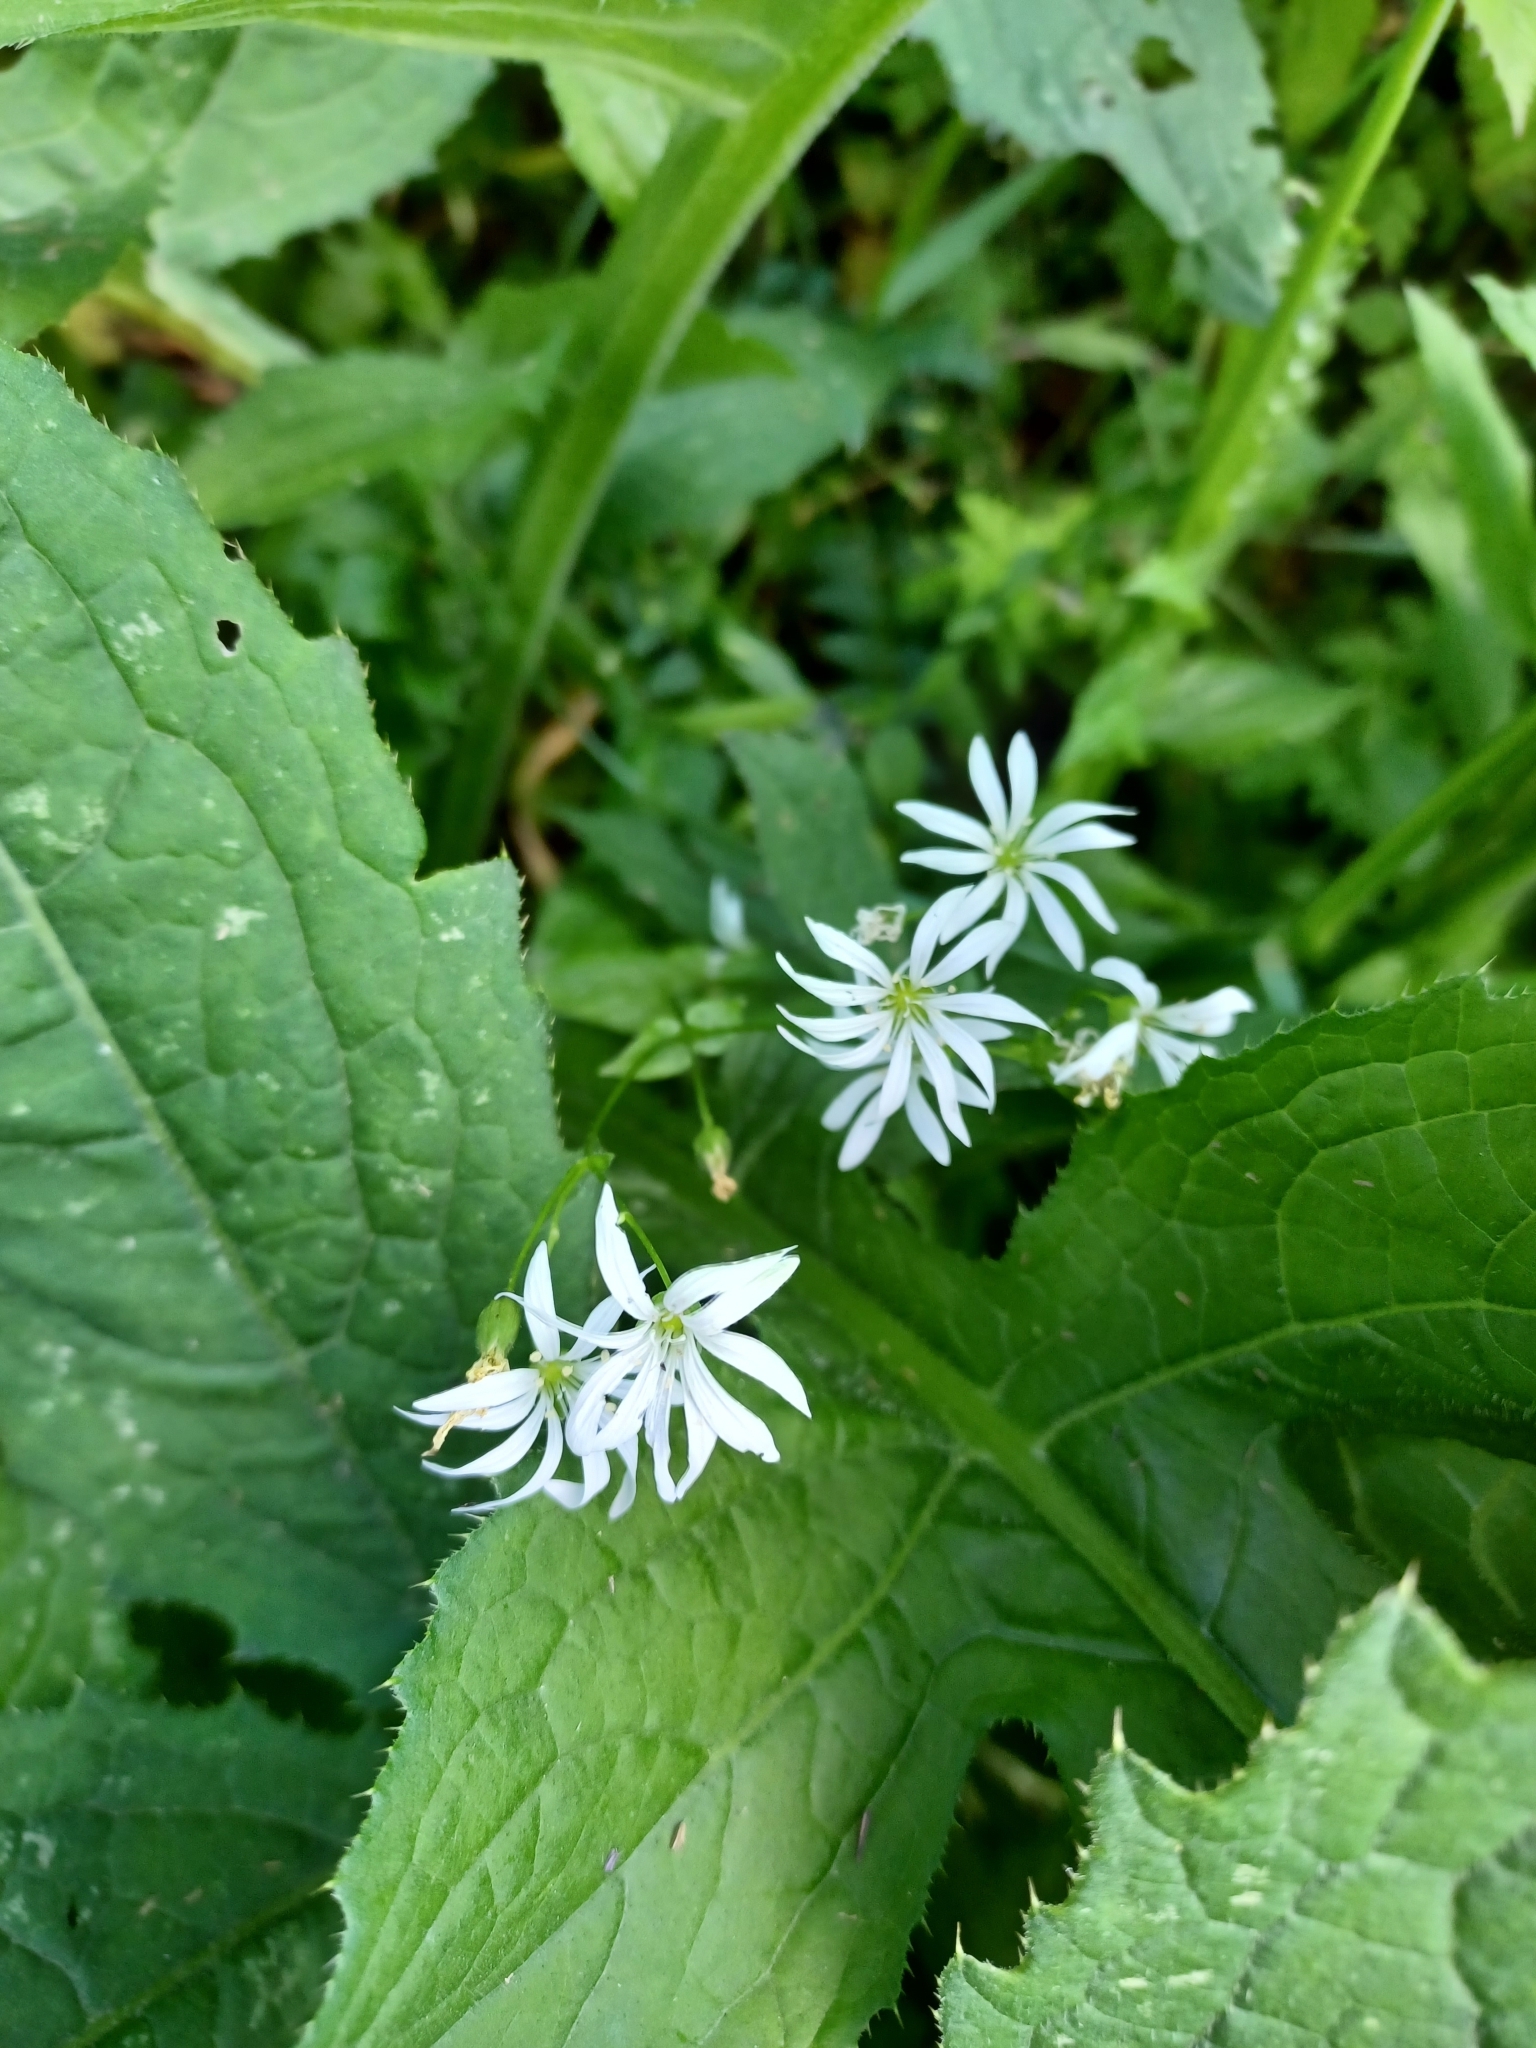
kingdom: Plantae
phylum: Tracheophyta
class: Magnoliopsida
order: Caryophyllales
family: Caryophyllaceae
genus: Stellaria
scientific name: Stellaria nemorum
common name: Wood stitchwort
